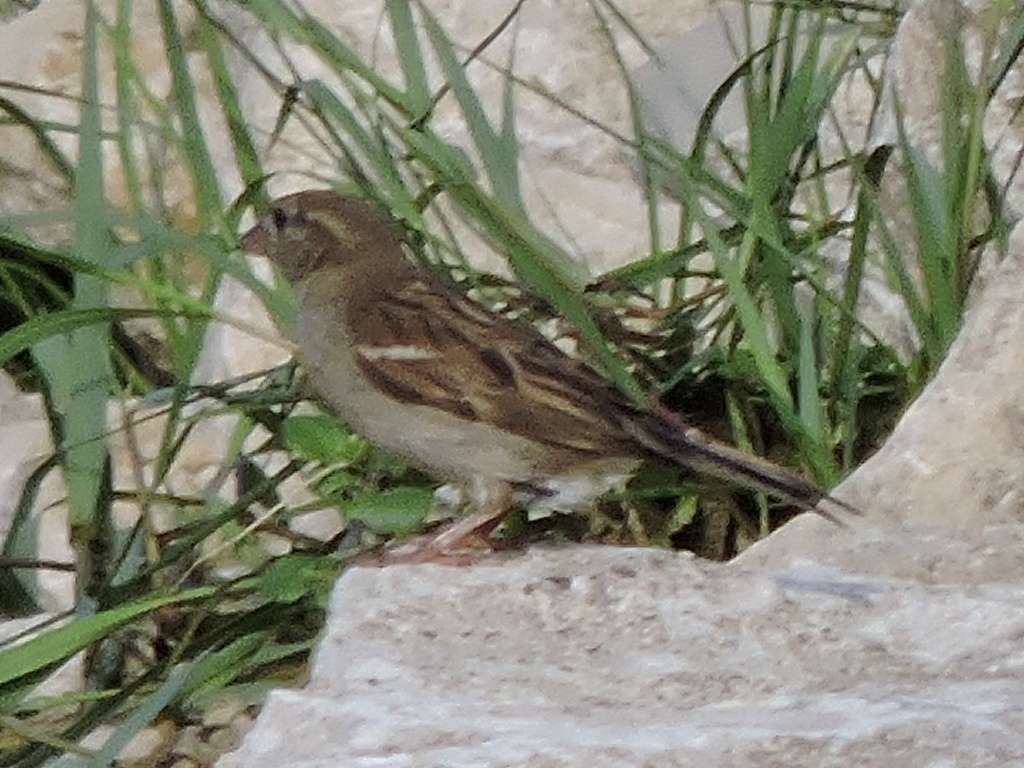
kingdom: Animalia
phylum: Chordata
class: Aves
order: Passeriformes
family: Passeridae
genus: Passer
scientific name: Passer domesticus
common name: House sparrow
